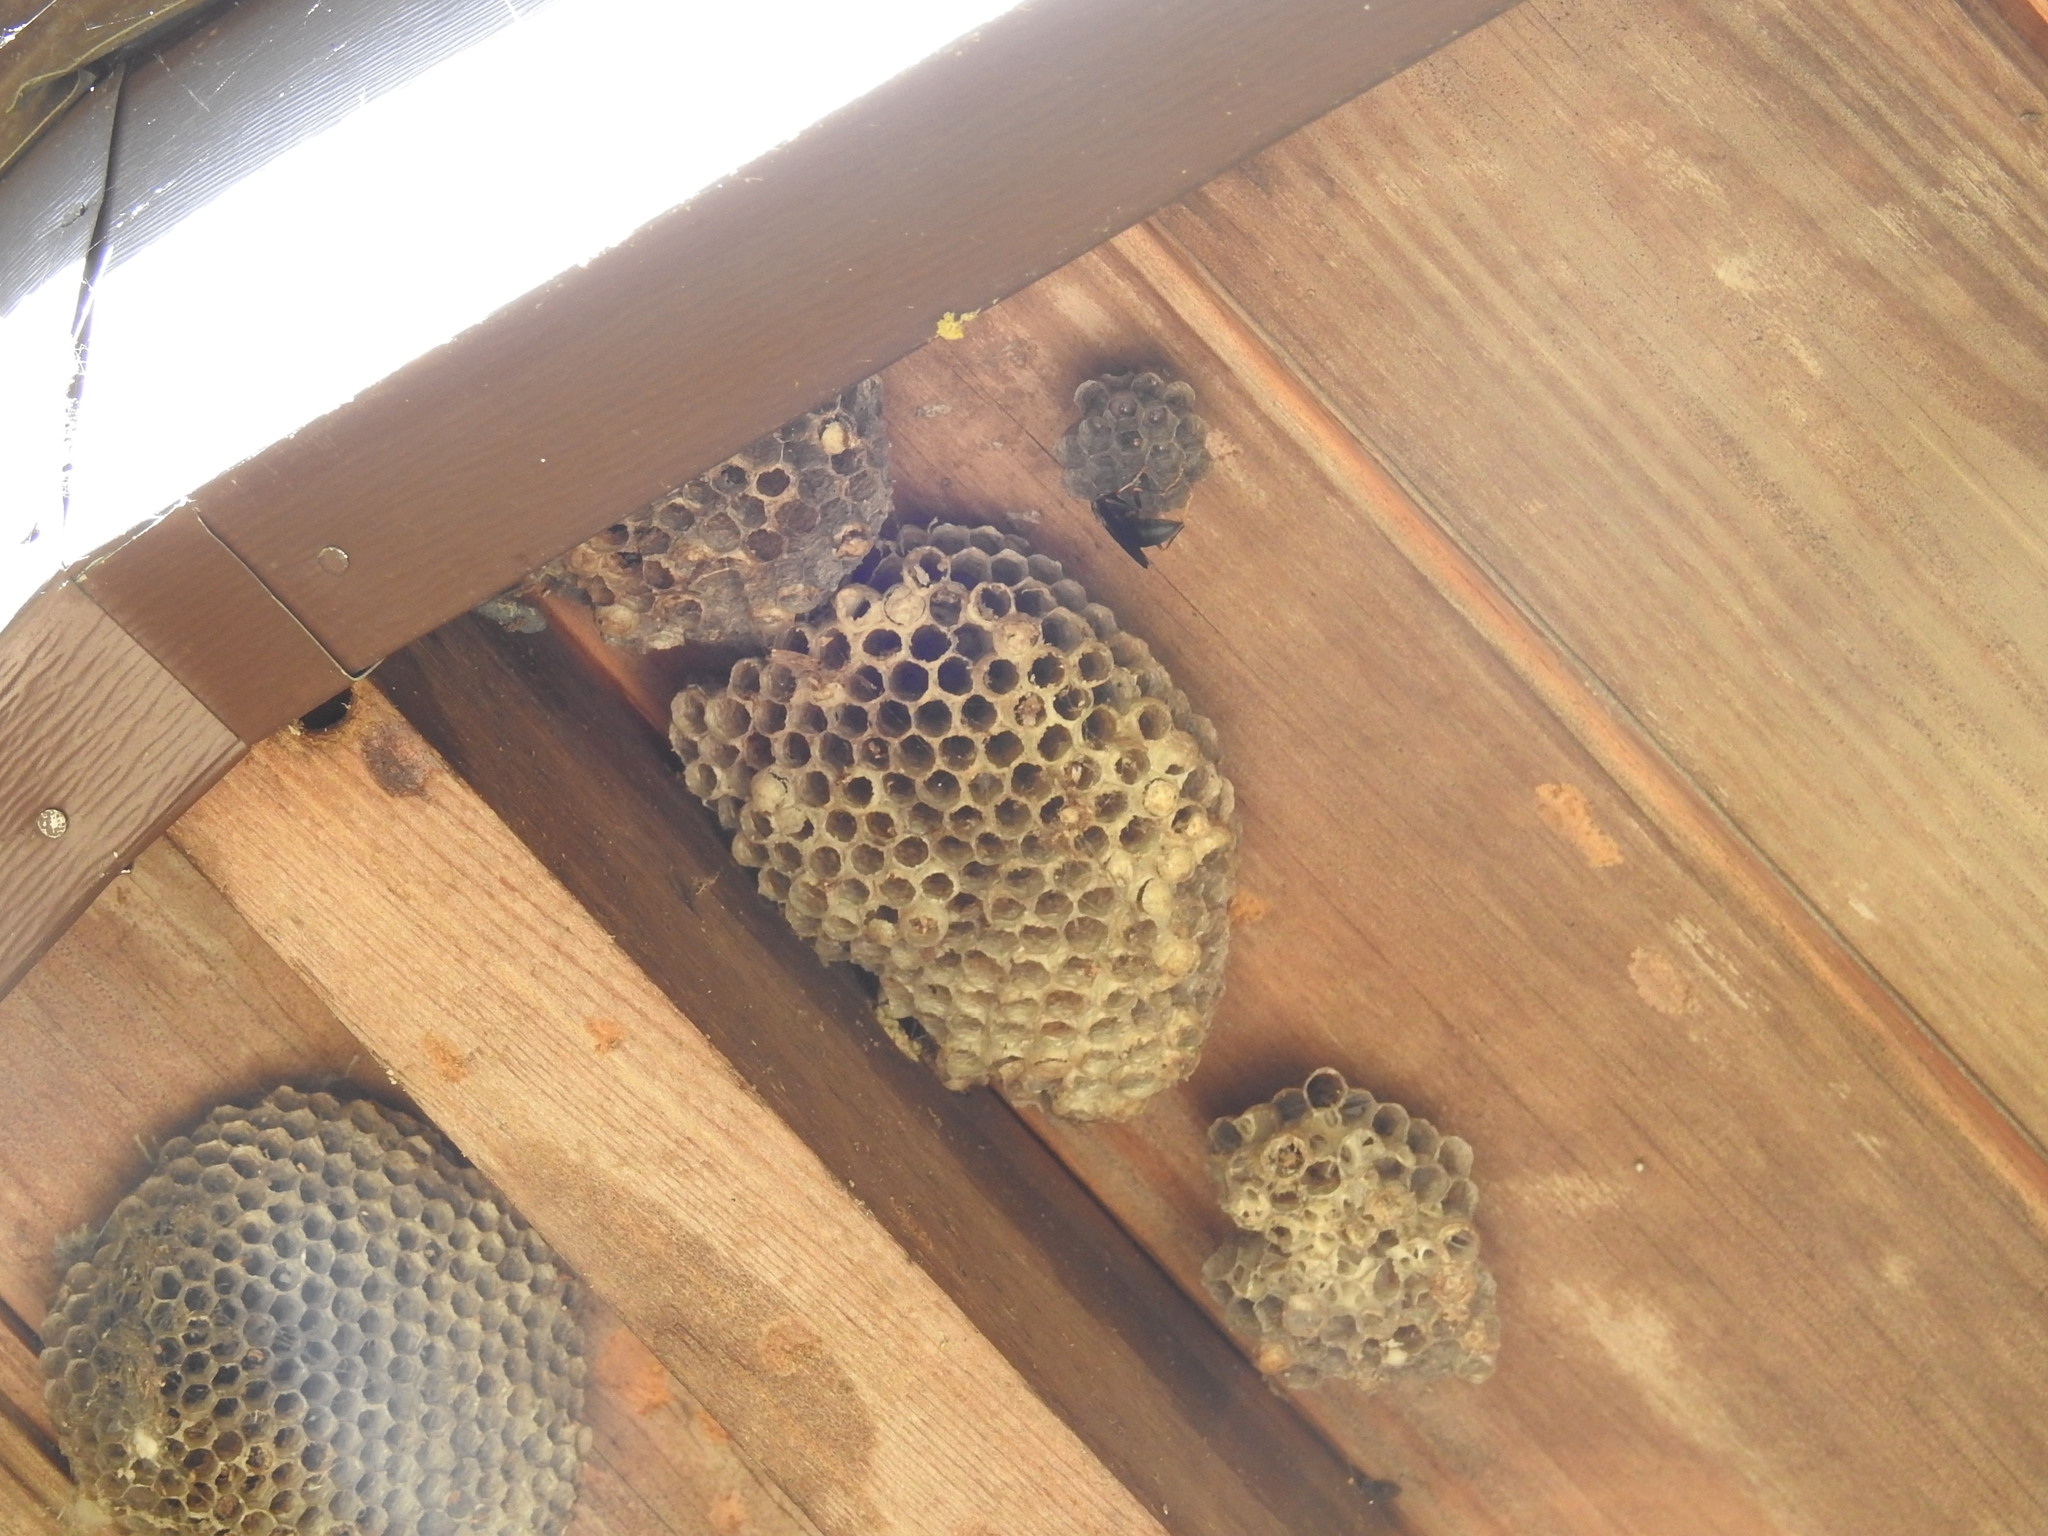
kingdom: Animalia
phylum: Arthropoda
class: Insecta
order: Hymenoptera
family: Eumenidae
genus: Polistes
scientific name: Polistes dominula
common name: Paper wasp
